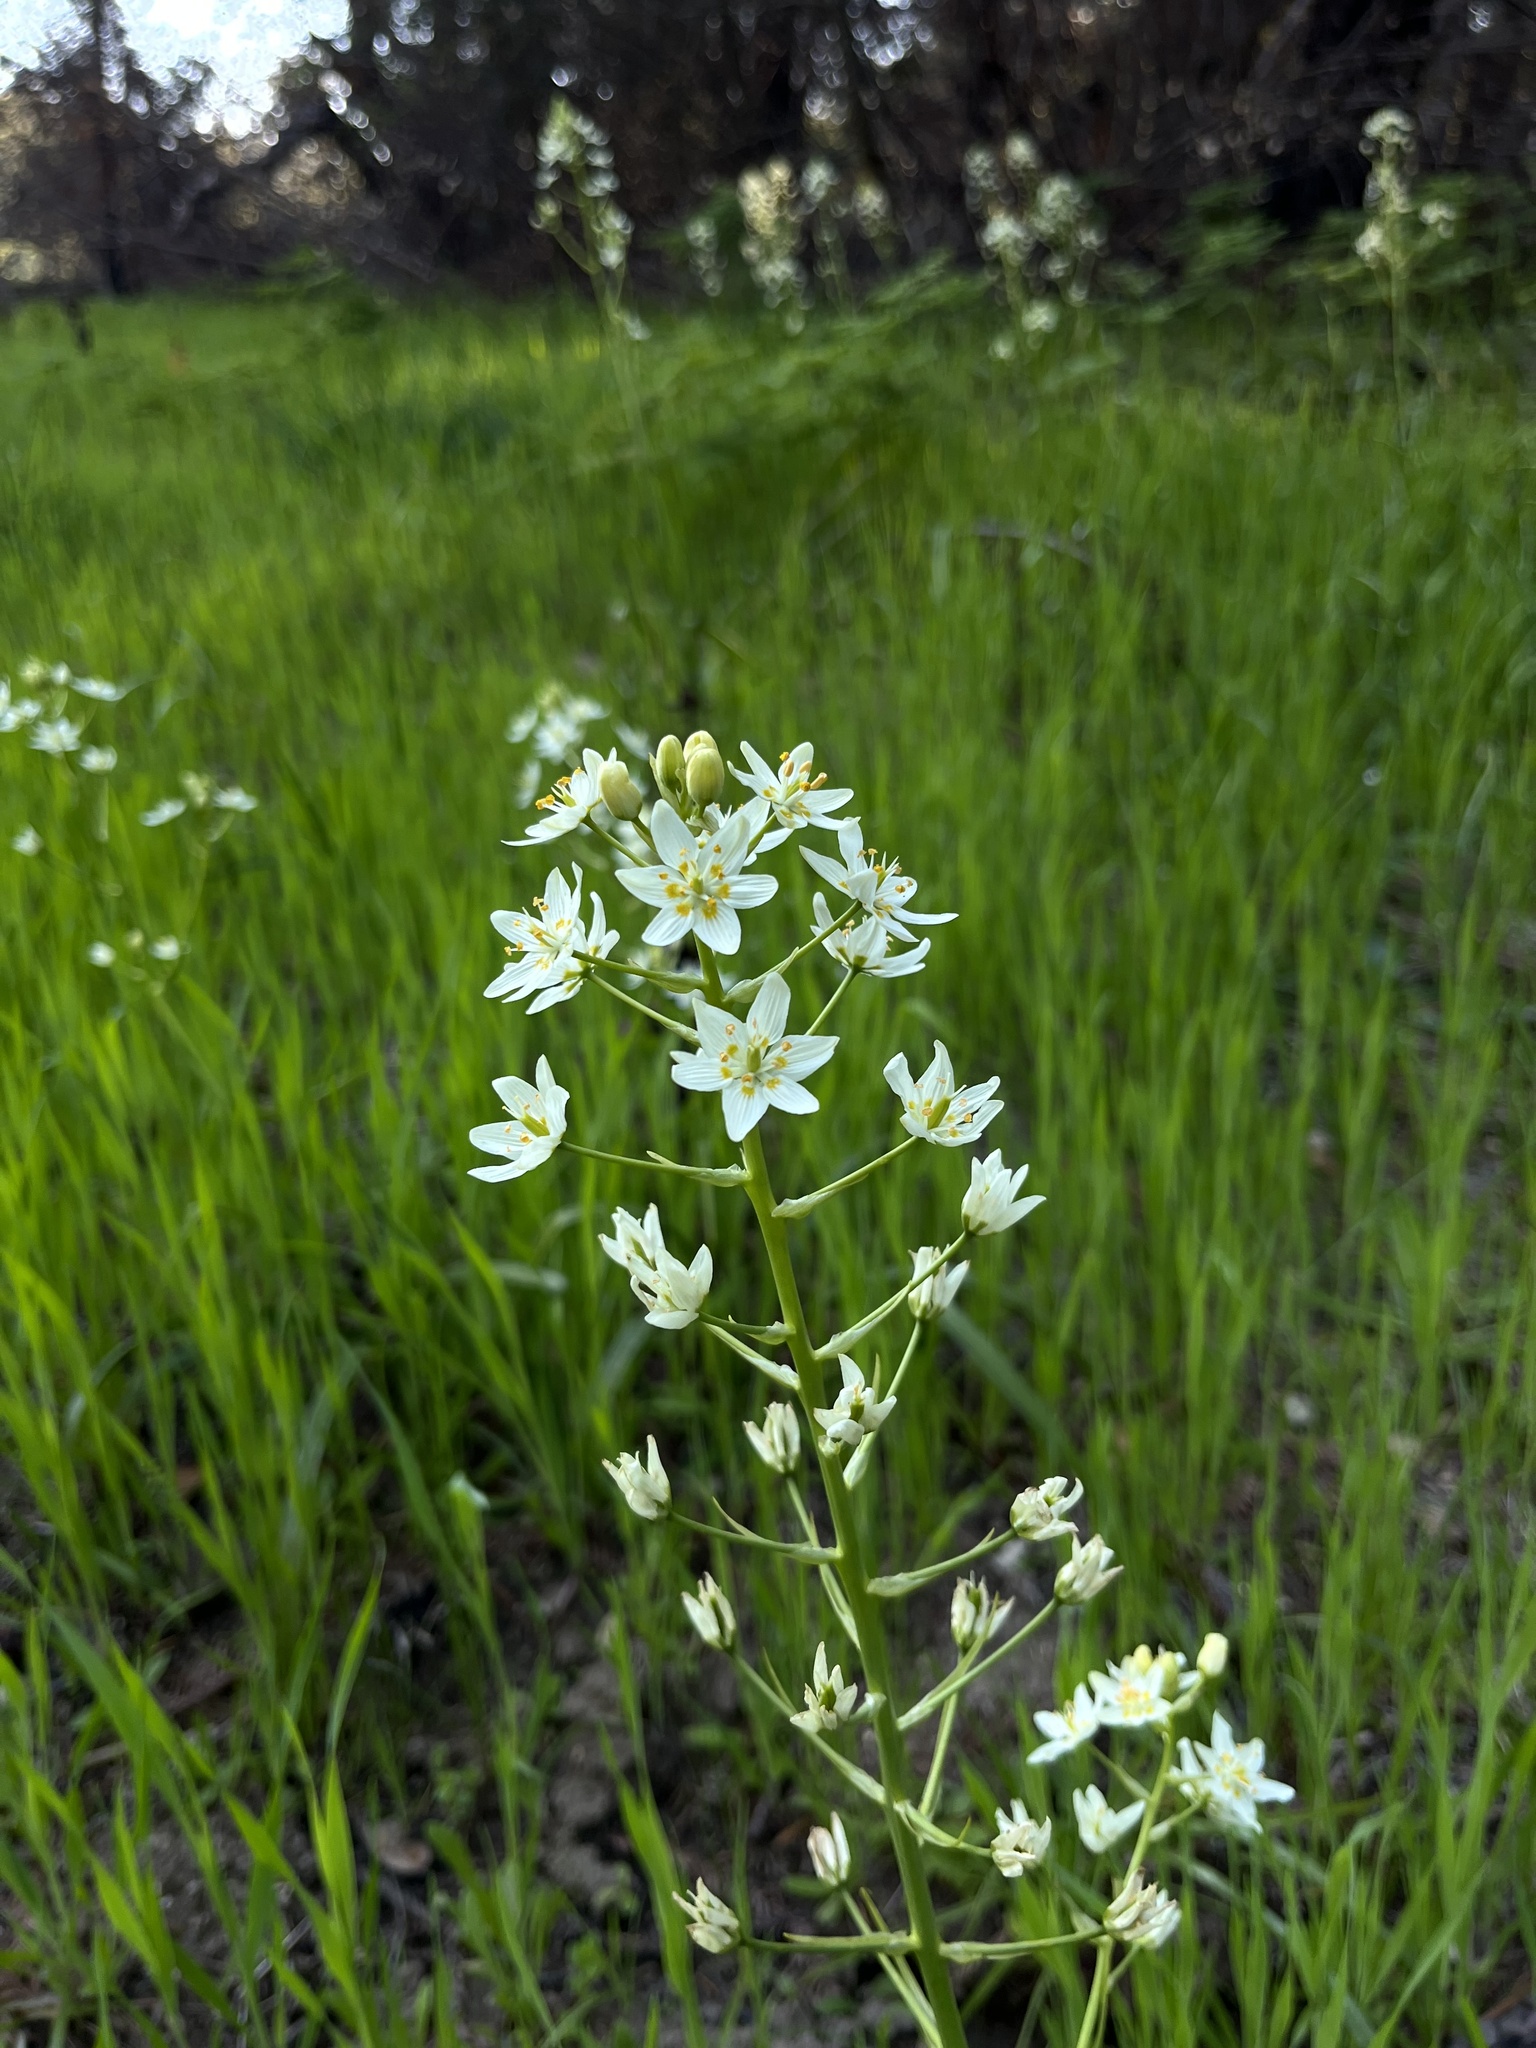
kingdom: Plantae
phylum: Tracheophyta
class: Liliopsida
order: Liliales
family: Melanthiaceae
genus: Toxicoscordion
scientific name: Toxicoscordion fremontii
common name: Fremont's death camas
